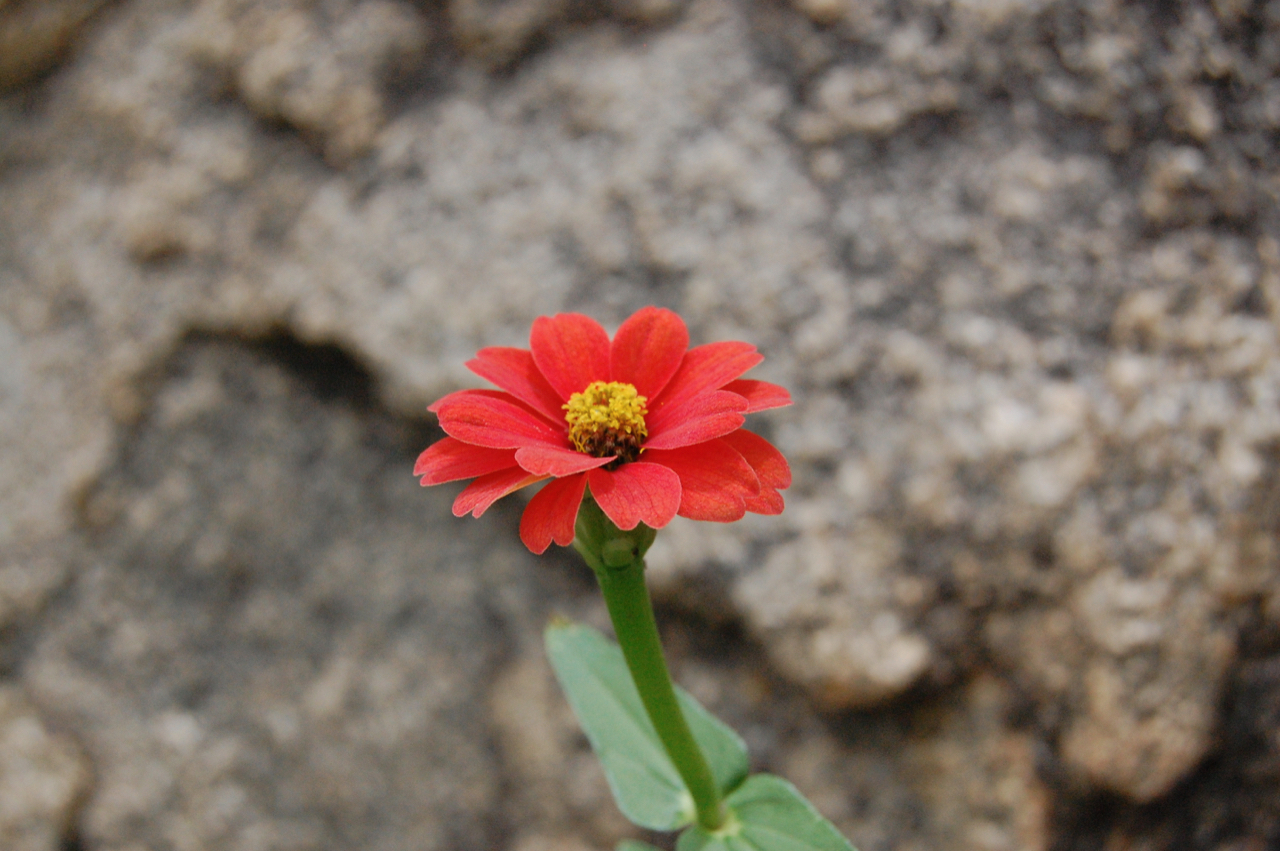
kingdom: Plantae
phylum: Tracheophyta
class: Magnoliopsida
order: Asterales
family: Asteraceae
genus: Zinnia
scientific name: Zinnia peruviana
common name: Peruvian zinnia
